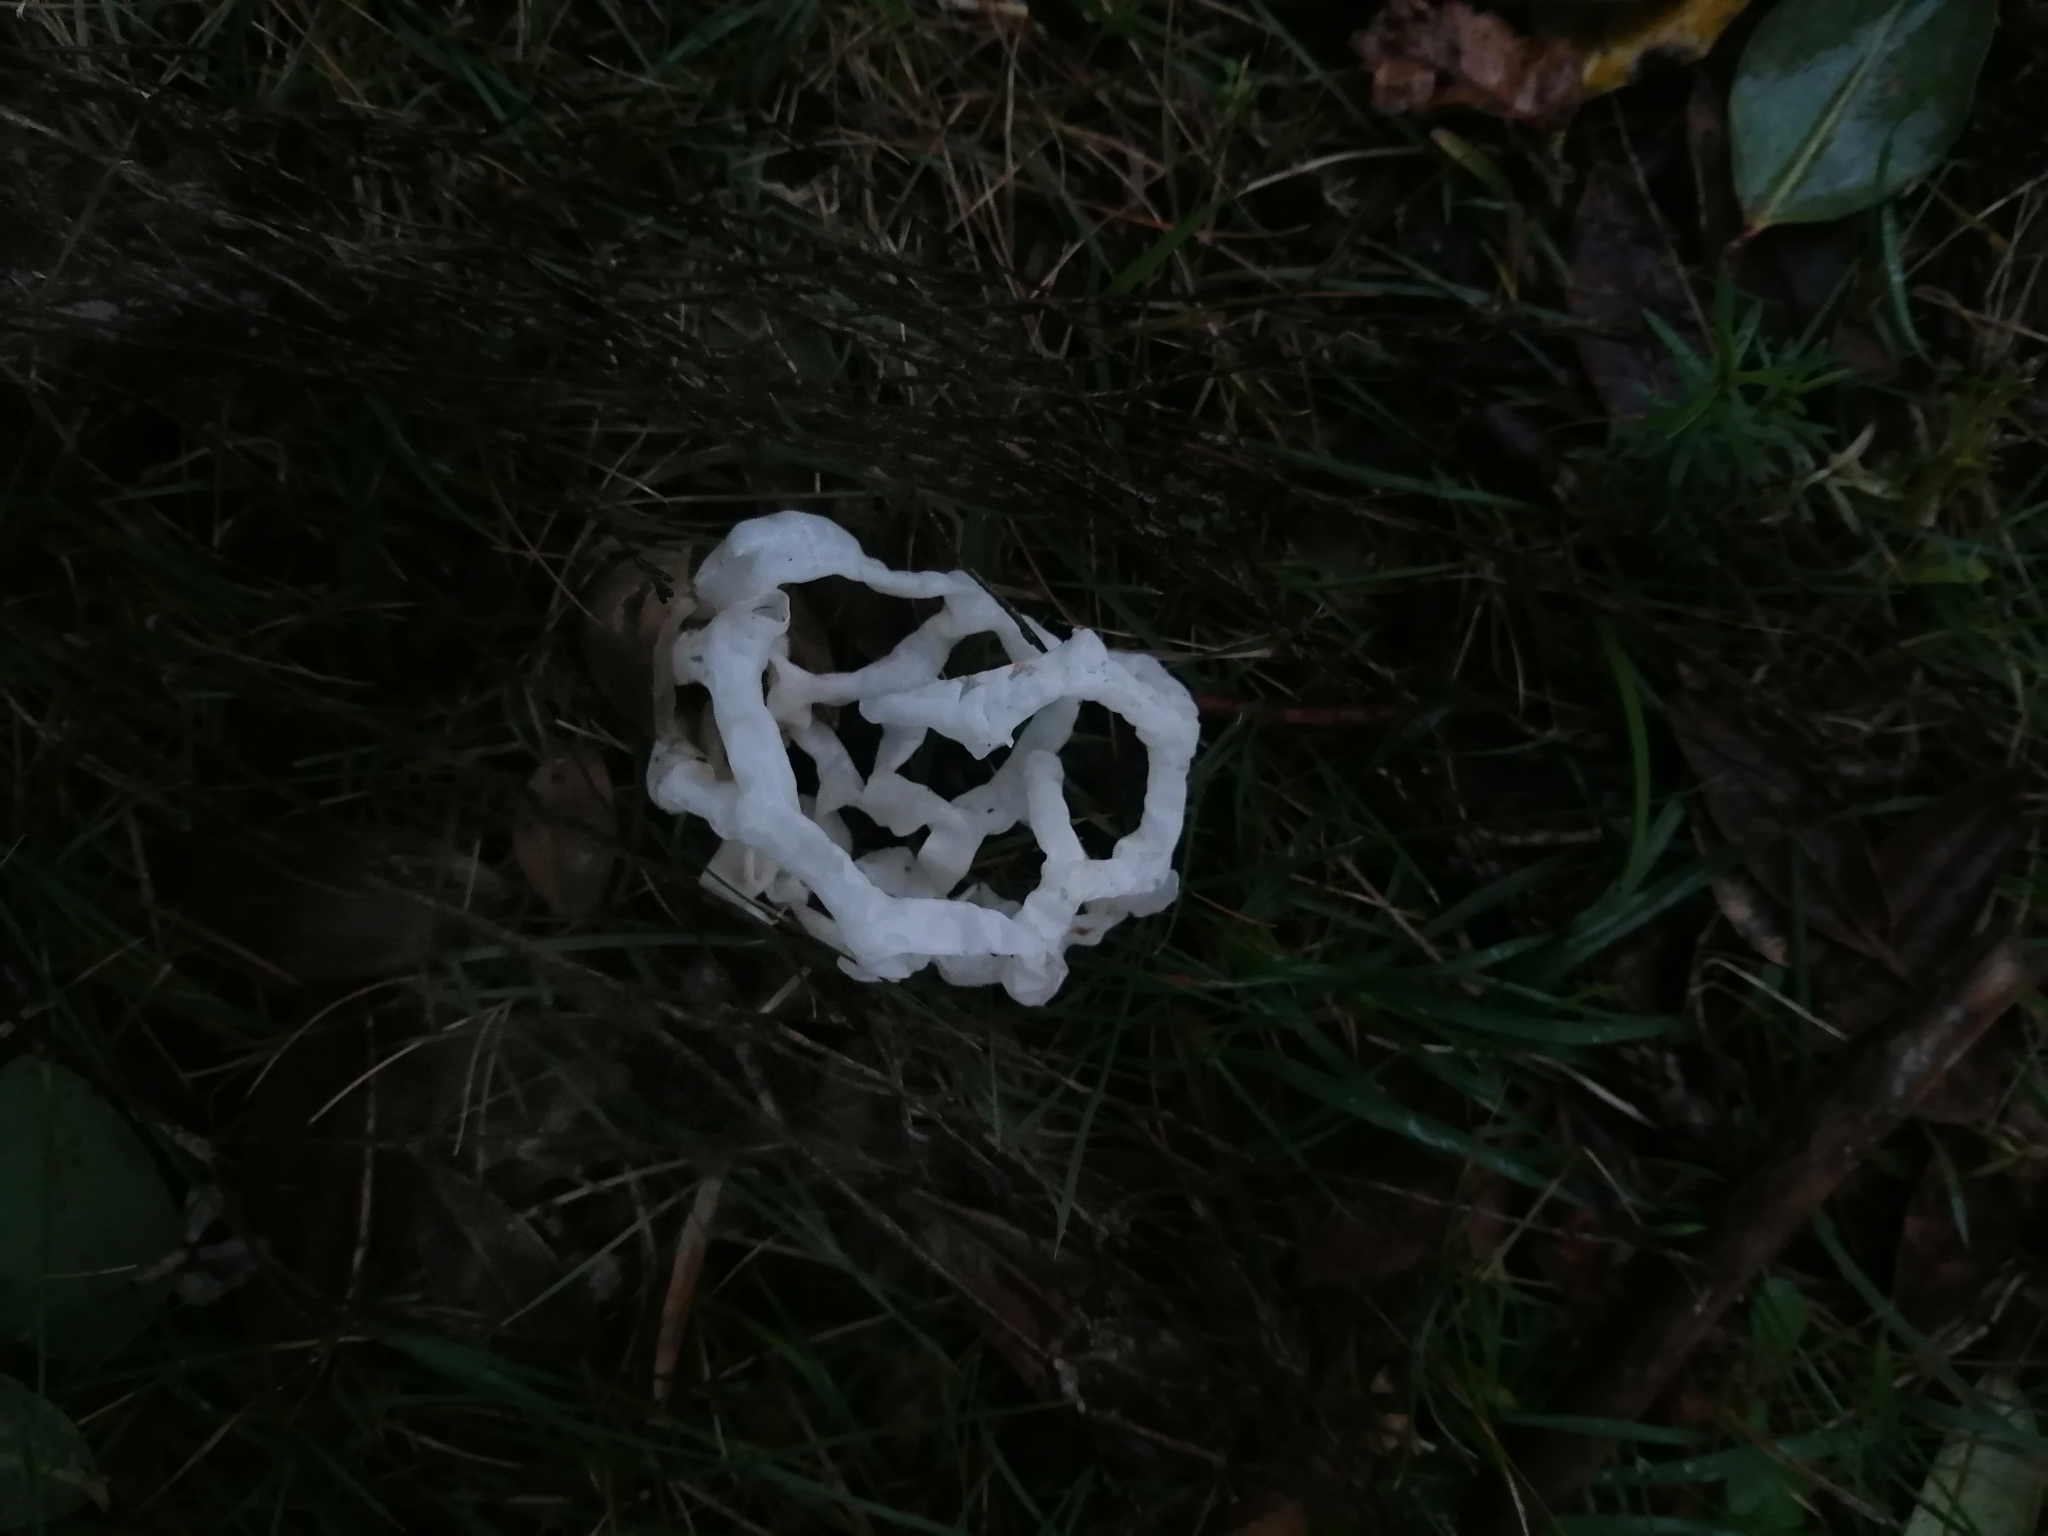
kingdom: Fungi
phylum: Basidiomycota
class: Agaricomycetes
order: Phallales
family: Phallaceae
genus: Ileodictyon
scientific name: Ileodictyon cibarium
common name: Basket fungus
